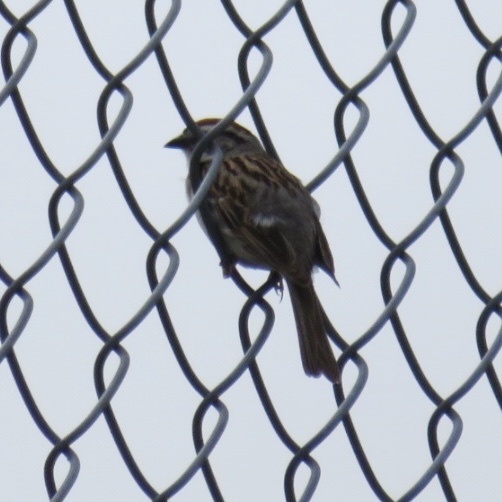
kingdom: Animalia
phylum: Chordata
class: Aves
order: Passeriformes
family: Passerellidae
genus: Spizella
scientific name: Spizella passerina
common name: Chipping sparrow
